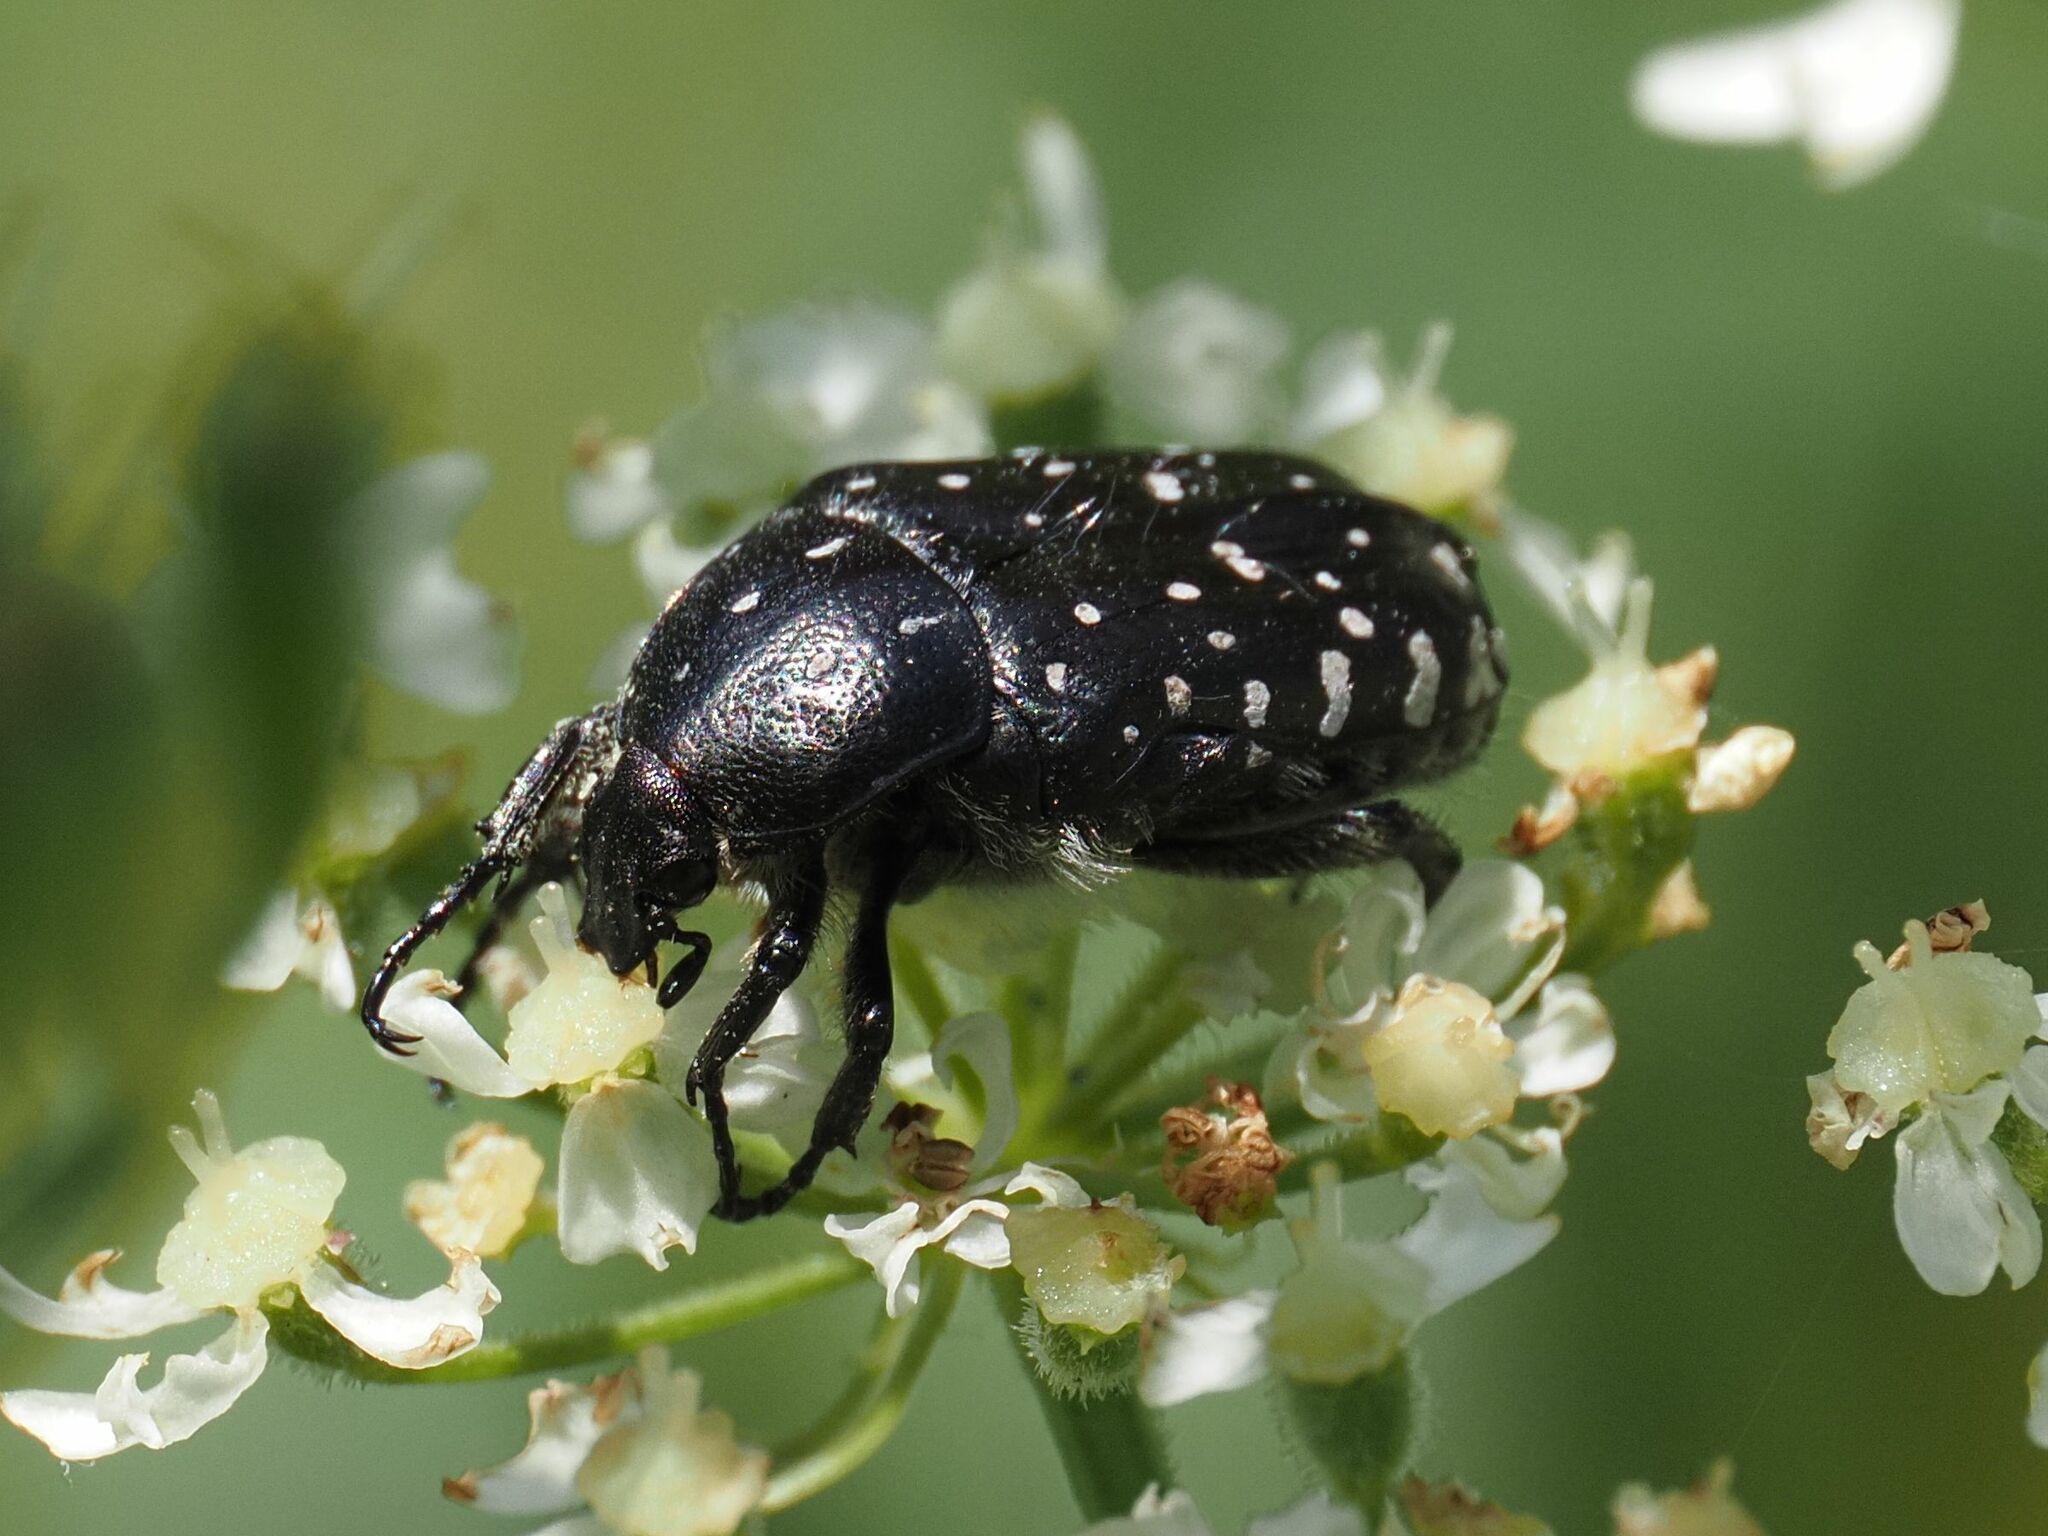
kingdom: Animalia
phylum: Arthropoda
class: Insecta
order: Coleoptera
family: Scarabaeidae
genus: Oxythyrea
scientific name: Oxythyrea funesta
